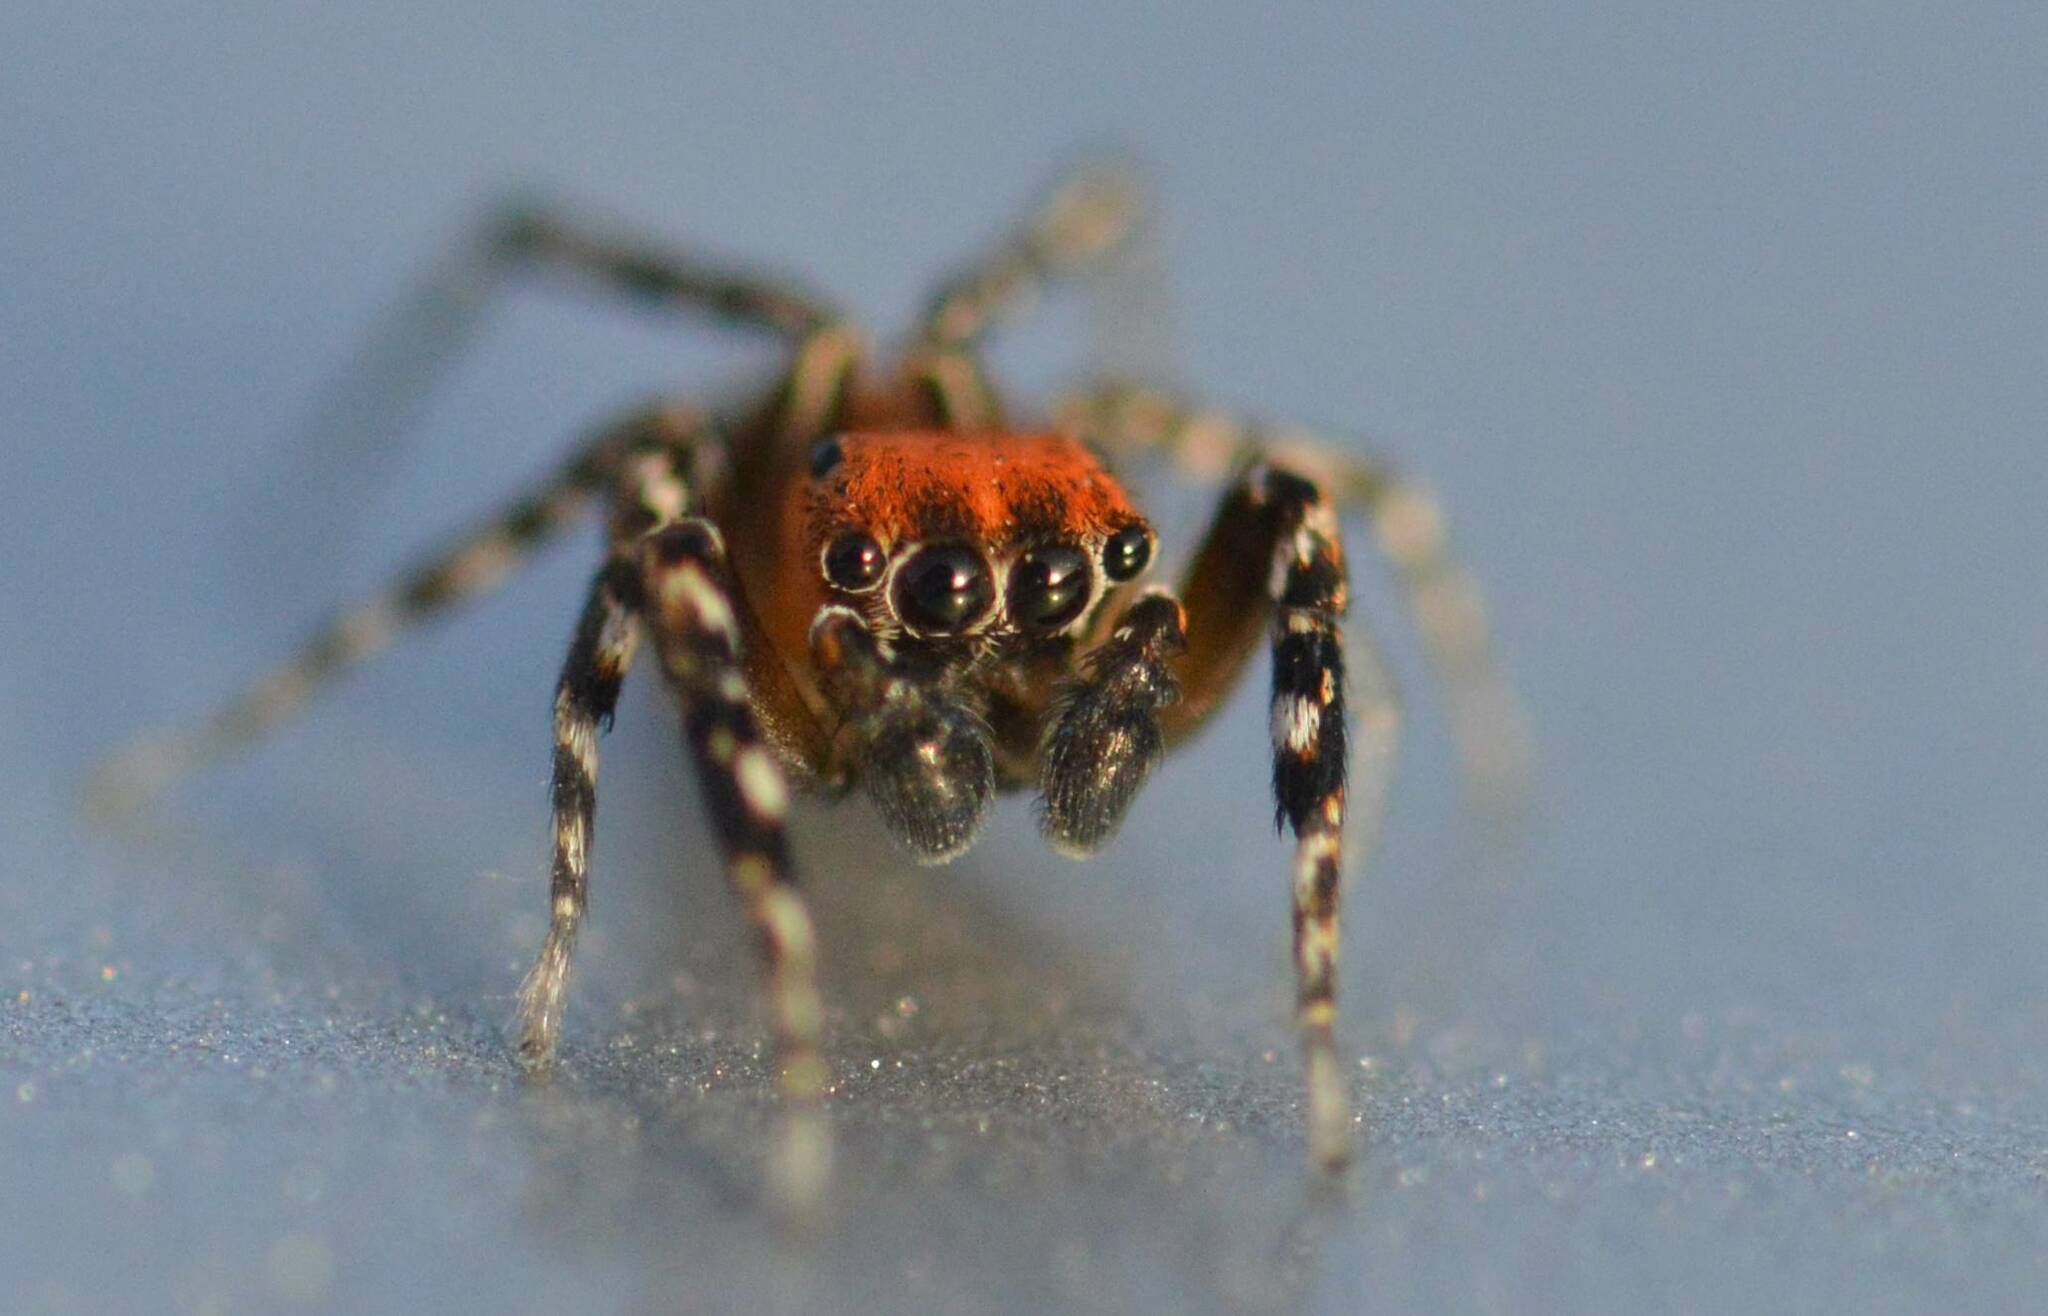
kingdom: Animalia
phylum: Arthropoda
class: Arachnida
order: Araneae
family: Salticidae
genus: Cyrba
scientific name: Cyrba algerina
